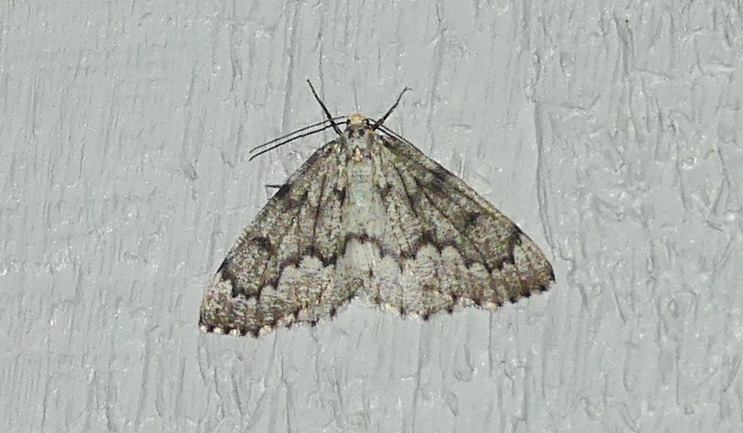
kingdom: Animalia
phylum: Arthropoda
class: Insecta
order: Lepidoptera
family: Geometridae
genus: Nepytia
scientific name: Nepytia canosaria
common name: False hemlock looper
